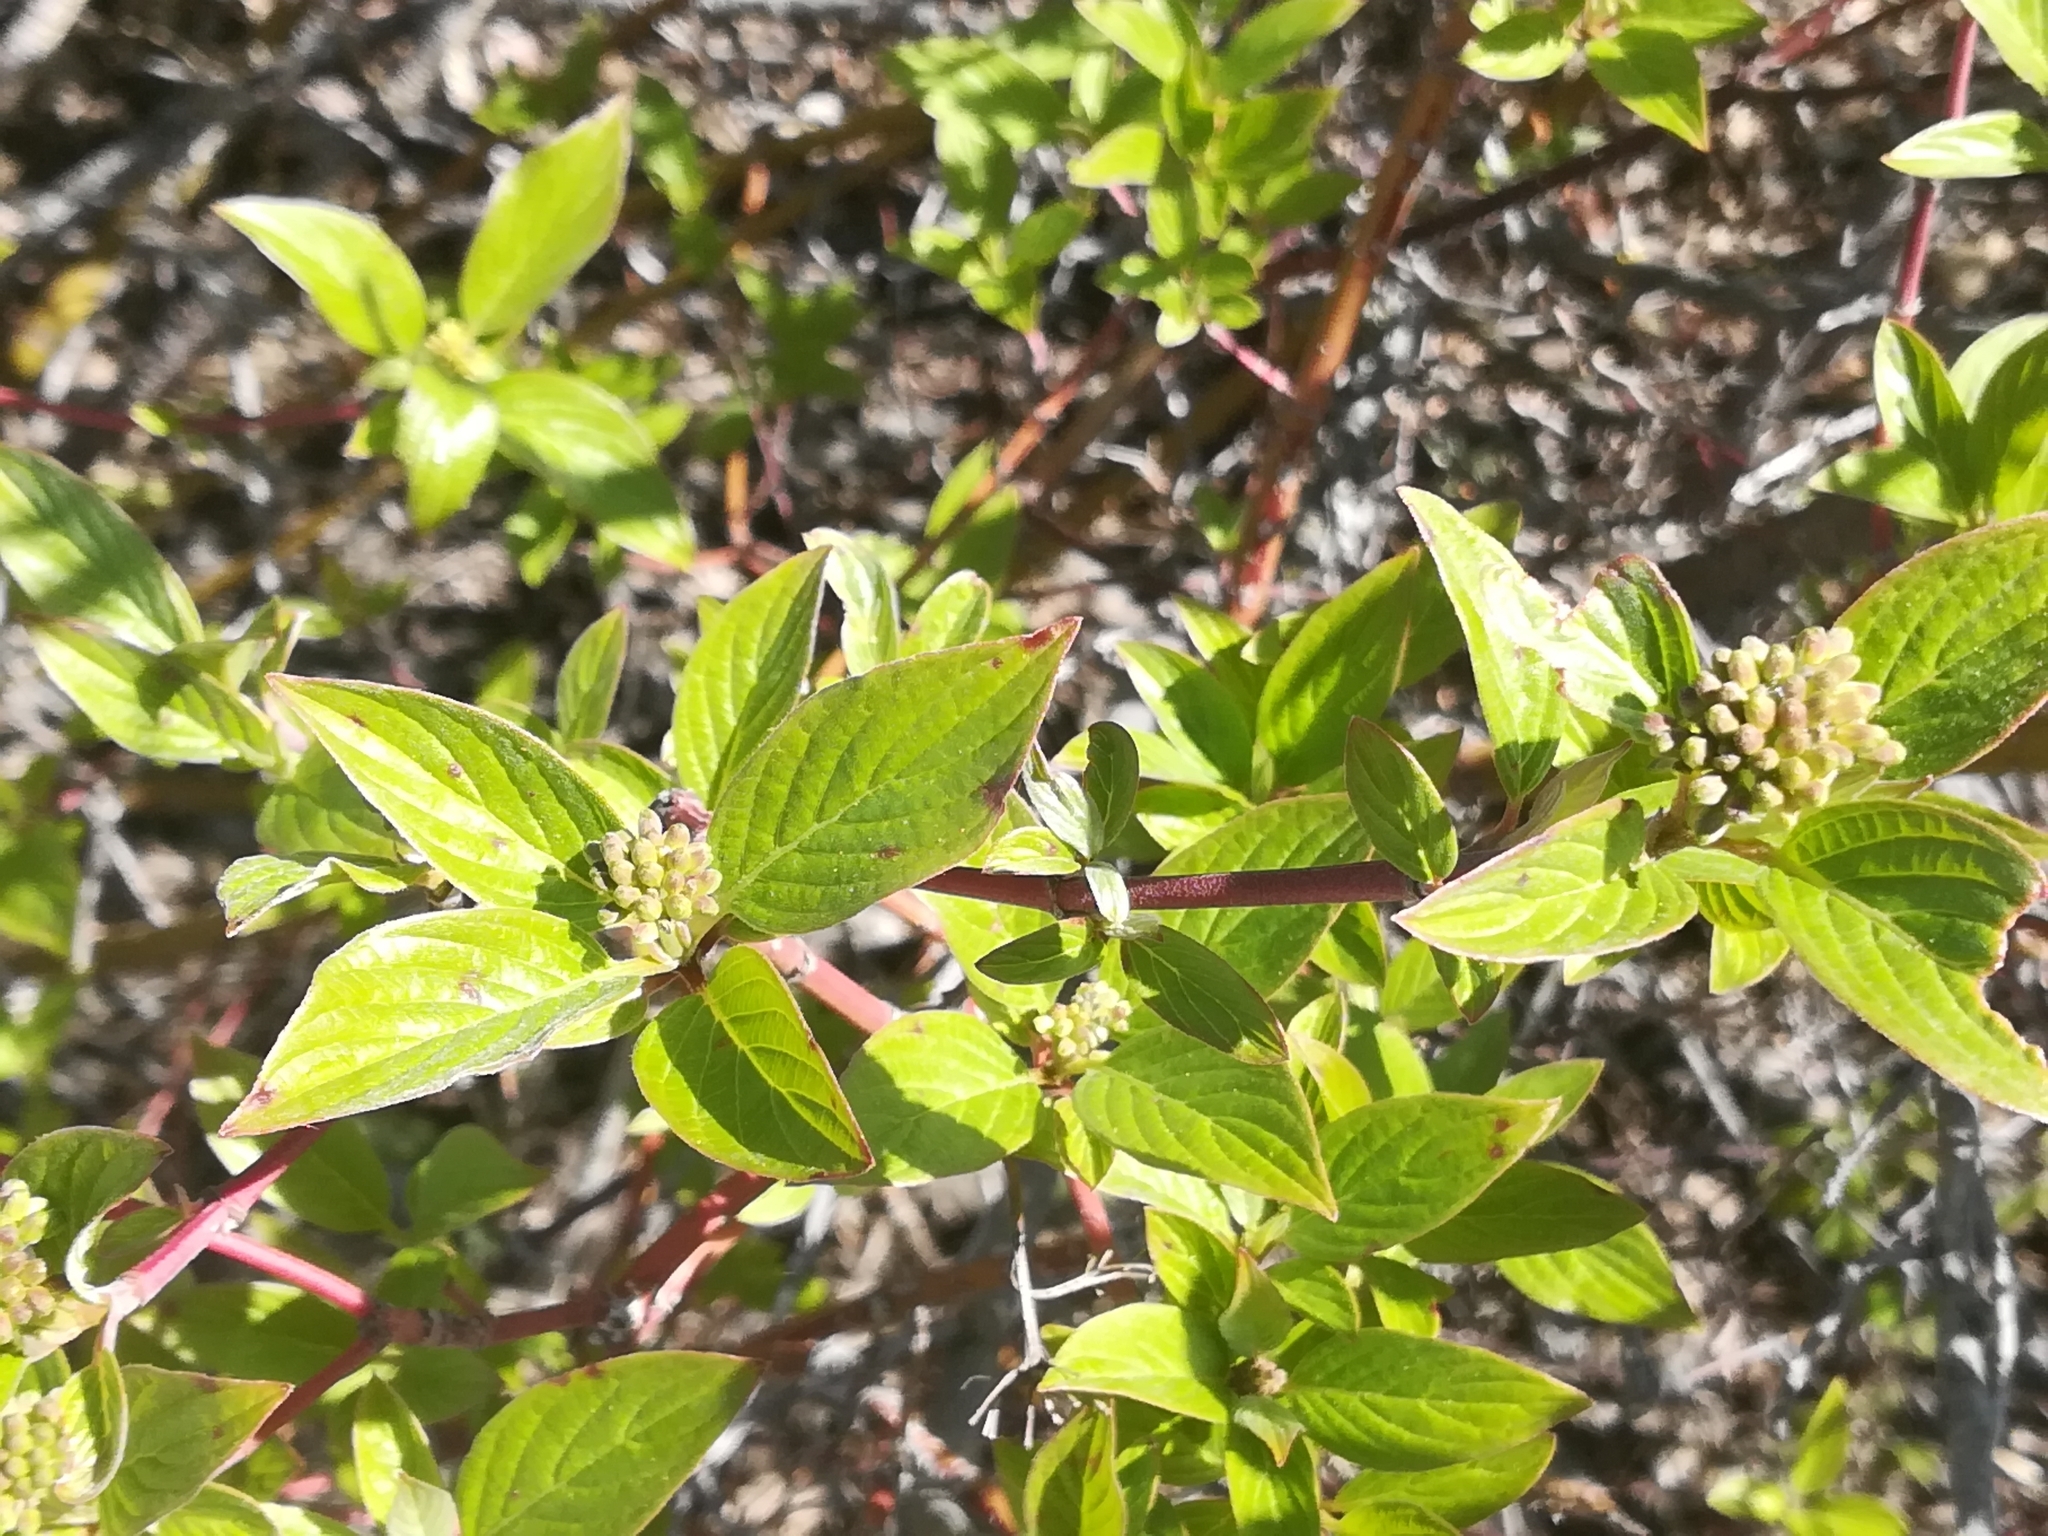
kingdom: Plantae
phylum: Tracheophyta
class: Magnoliopsida
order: Cornales
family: Cornaceae
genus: Cornus
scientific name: Cornus sericea
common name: Red-osier dogwood
